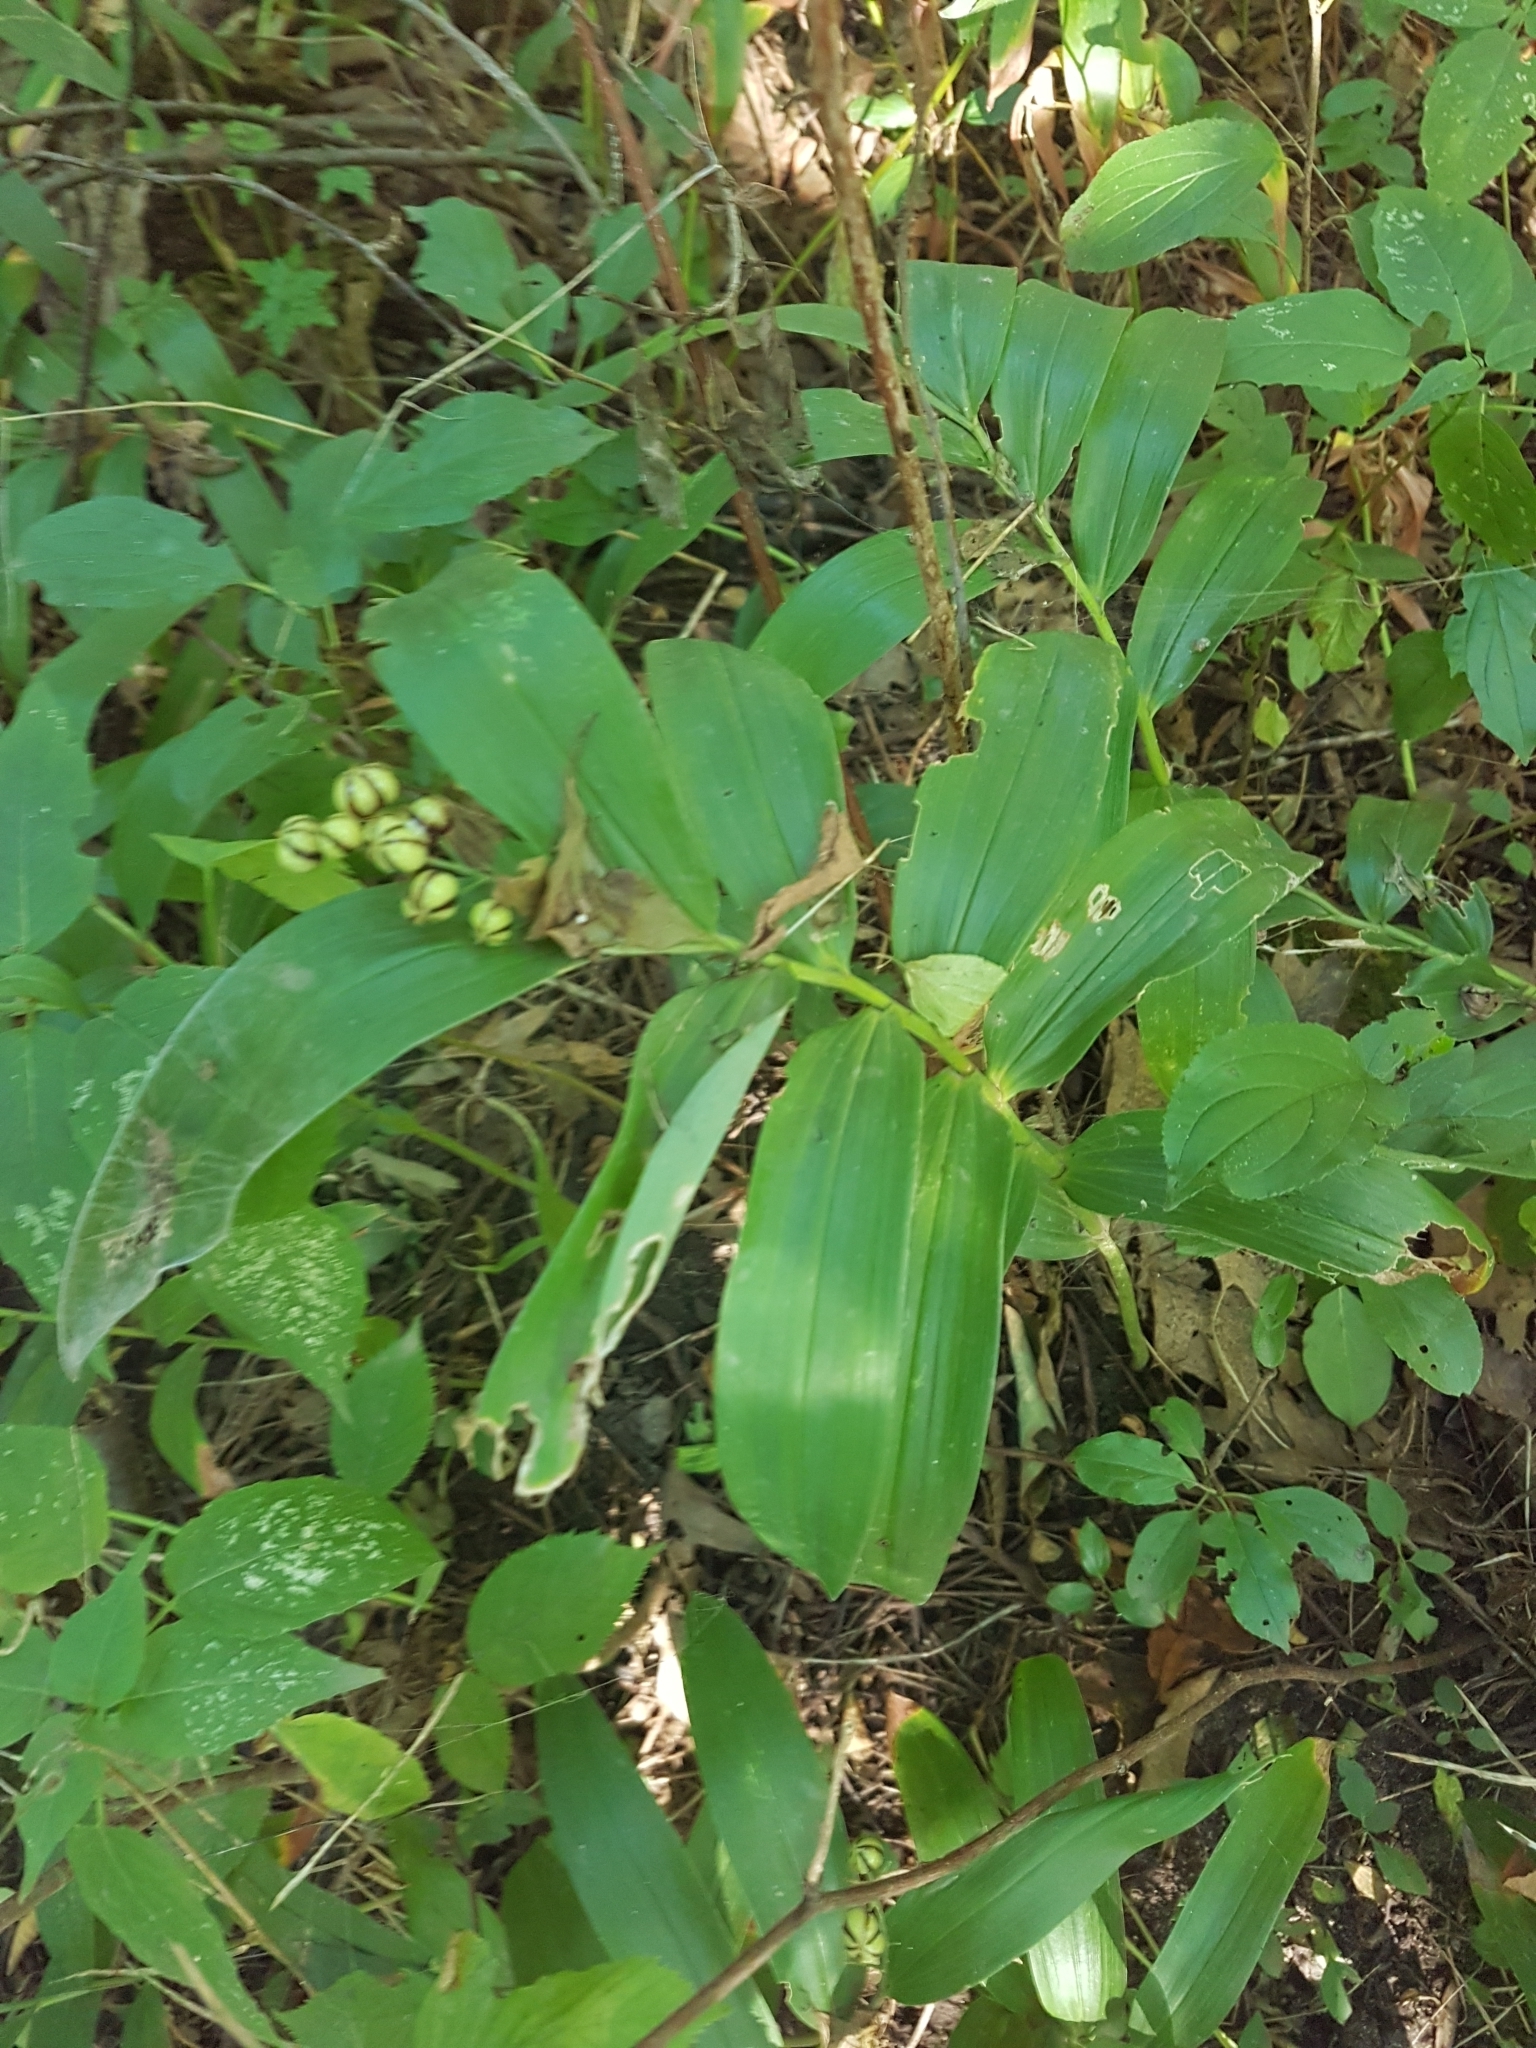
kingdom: Plantae
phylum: Tracheophyta
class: Liliopsida
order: Asparagales
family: Asparagaceae
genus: Maianthemum
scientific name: Maianthemum stellatum
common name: Little false solomon's seal
